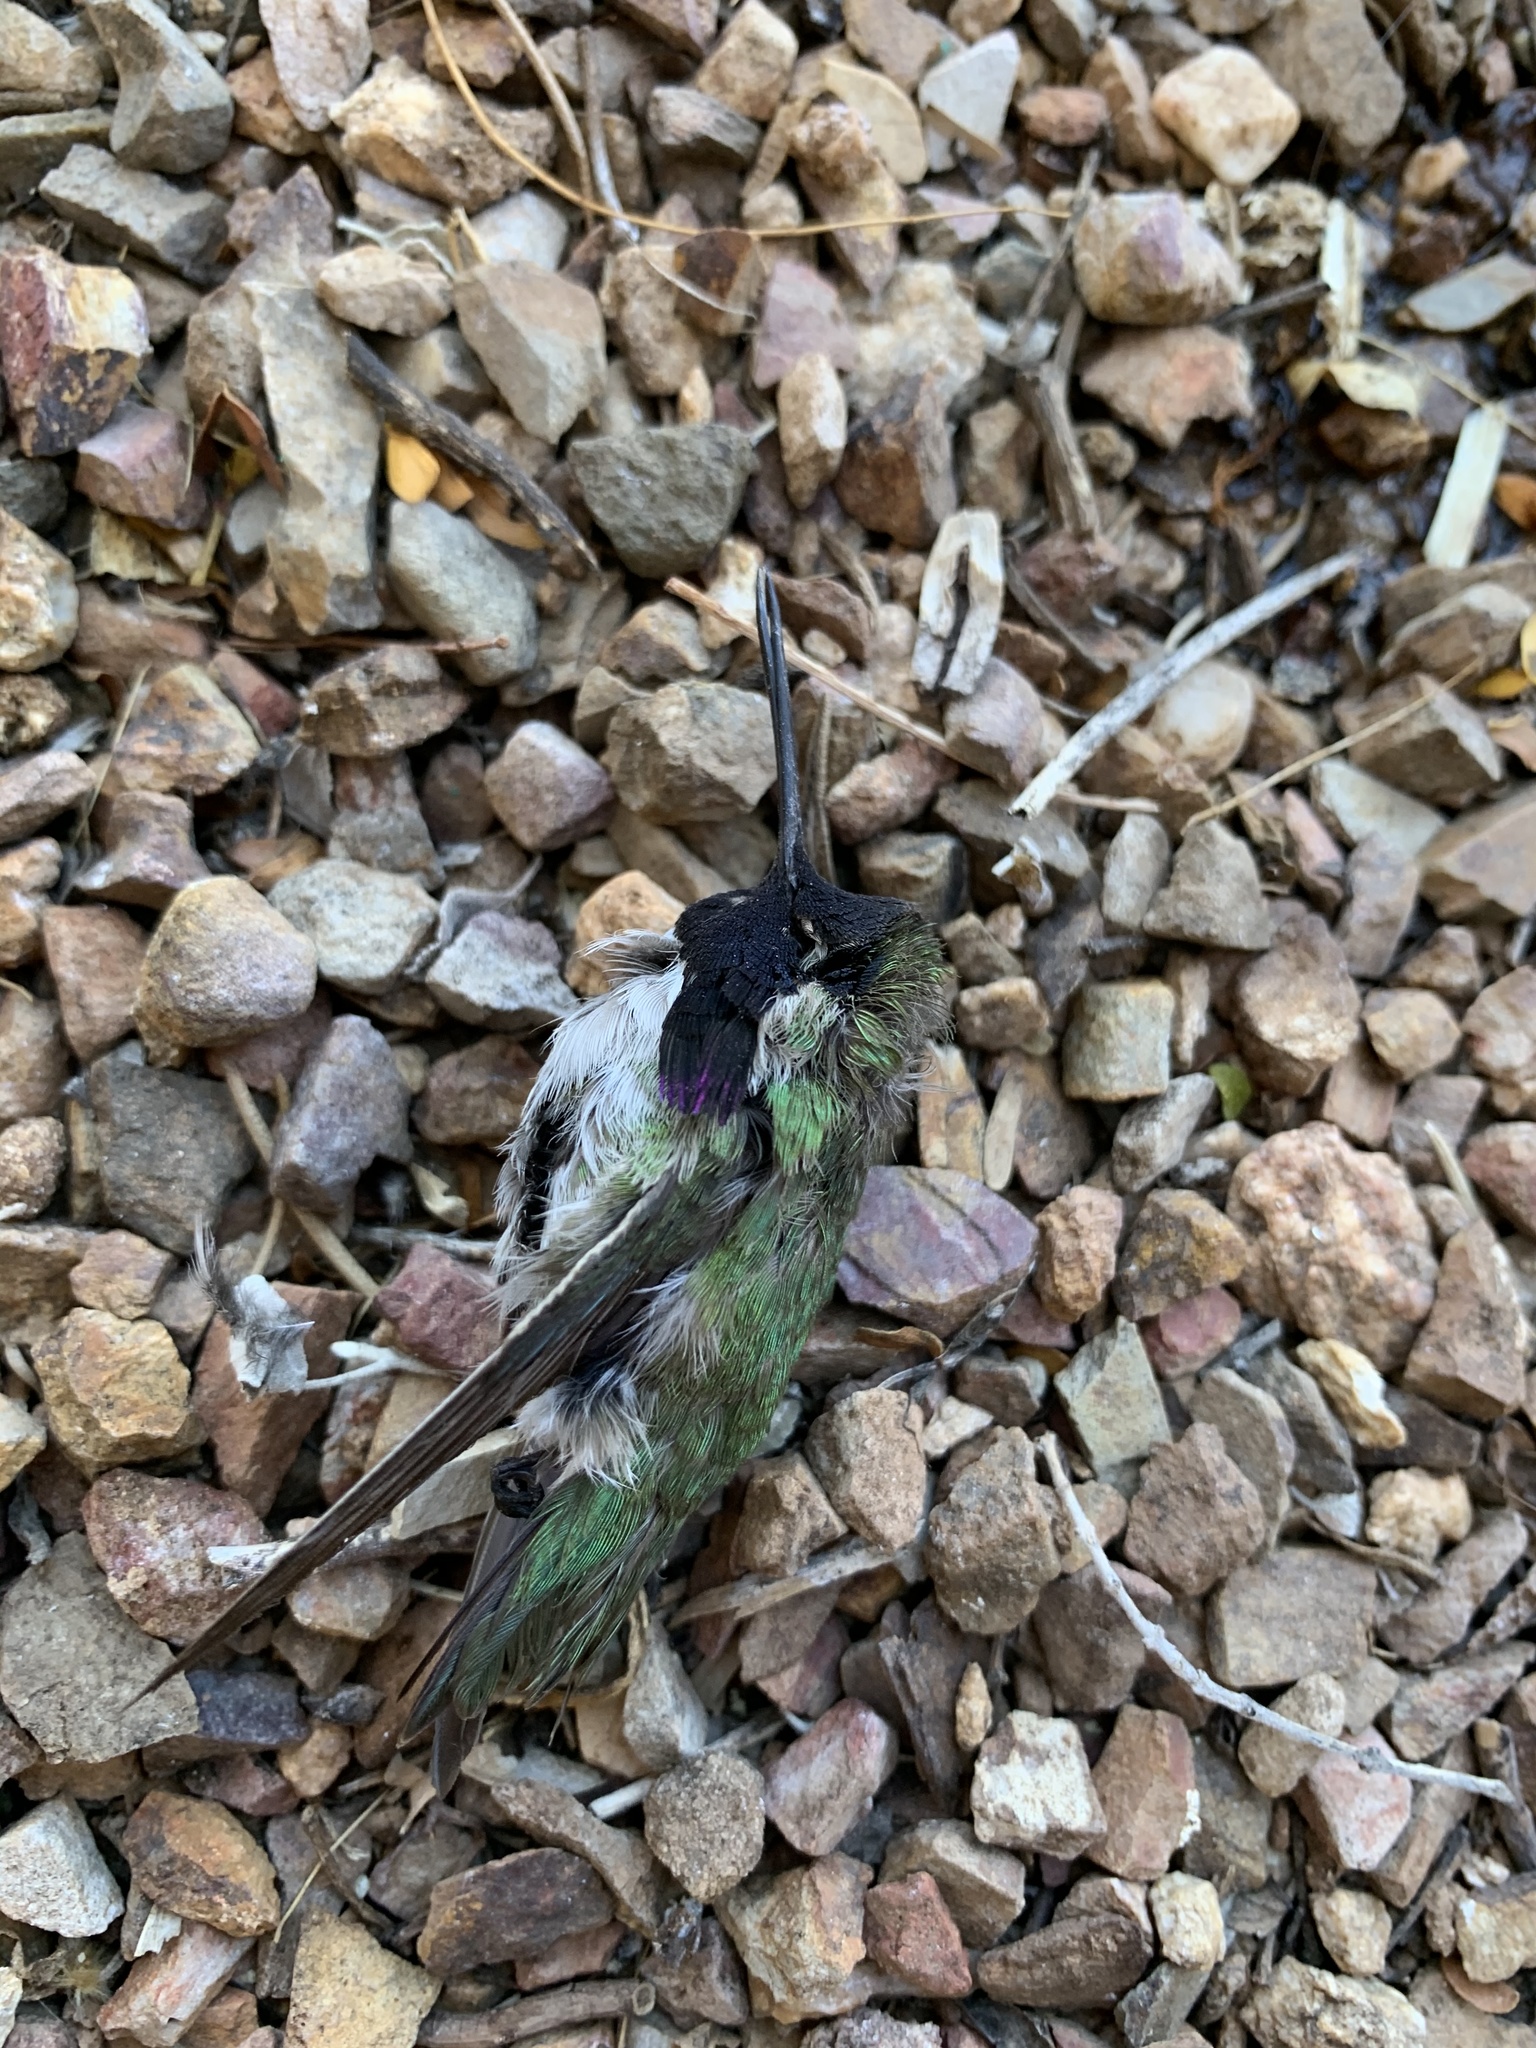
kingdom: Animalia
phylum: Chordata
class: Aves
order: Apodiformes
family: Trochilidae
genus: Calypte
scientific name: Calypte costae
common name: Costa's hummingbird
